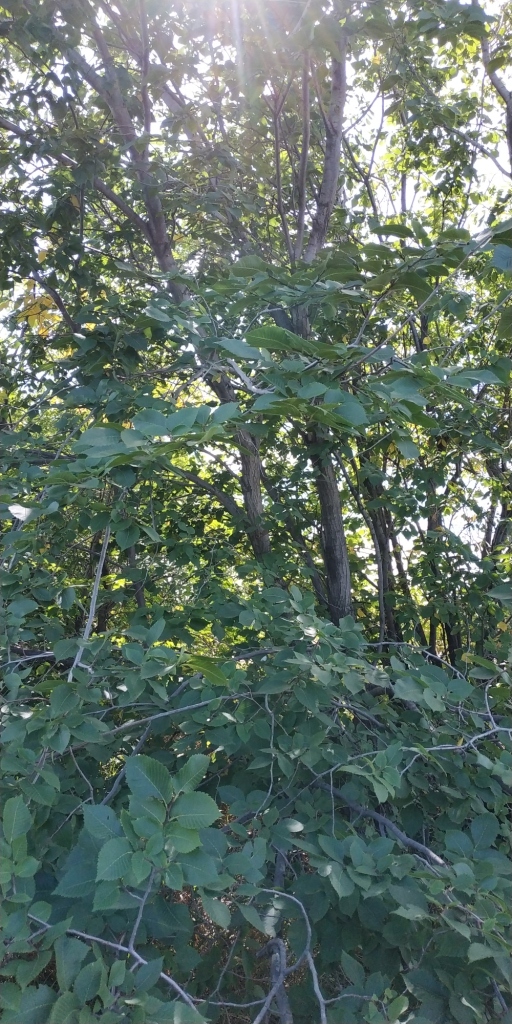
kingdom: Plantae
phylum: Tracheophyta
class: Magnoliopsida
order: Rosales
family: Ulmaceae
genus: Ulmus
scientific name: Ulmus laevis
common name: European white-elm
